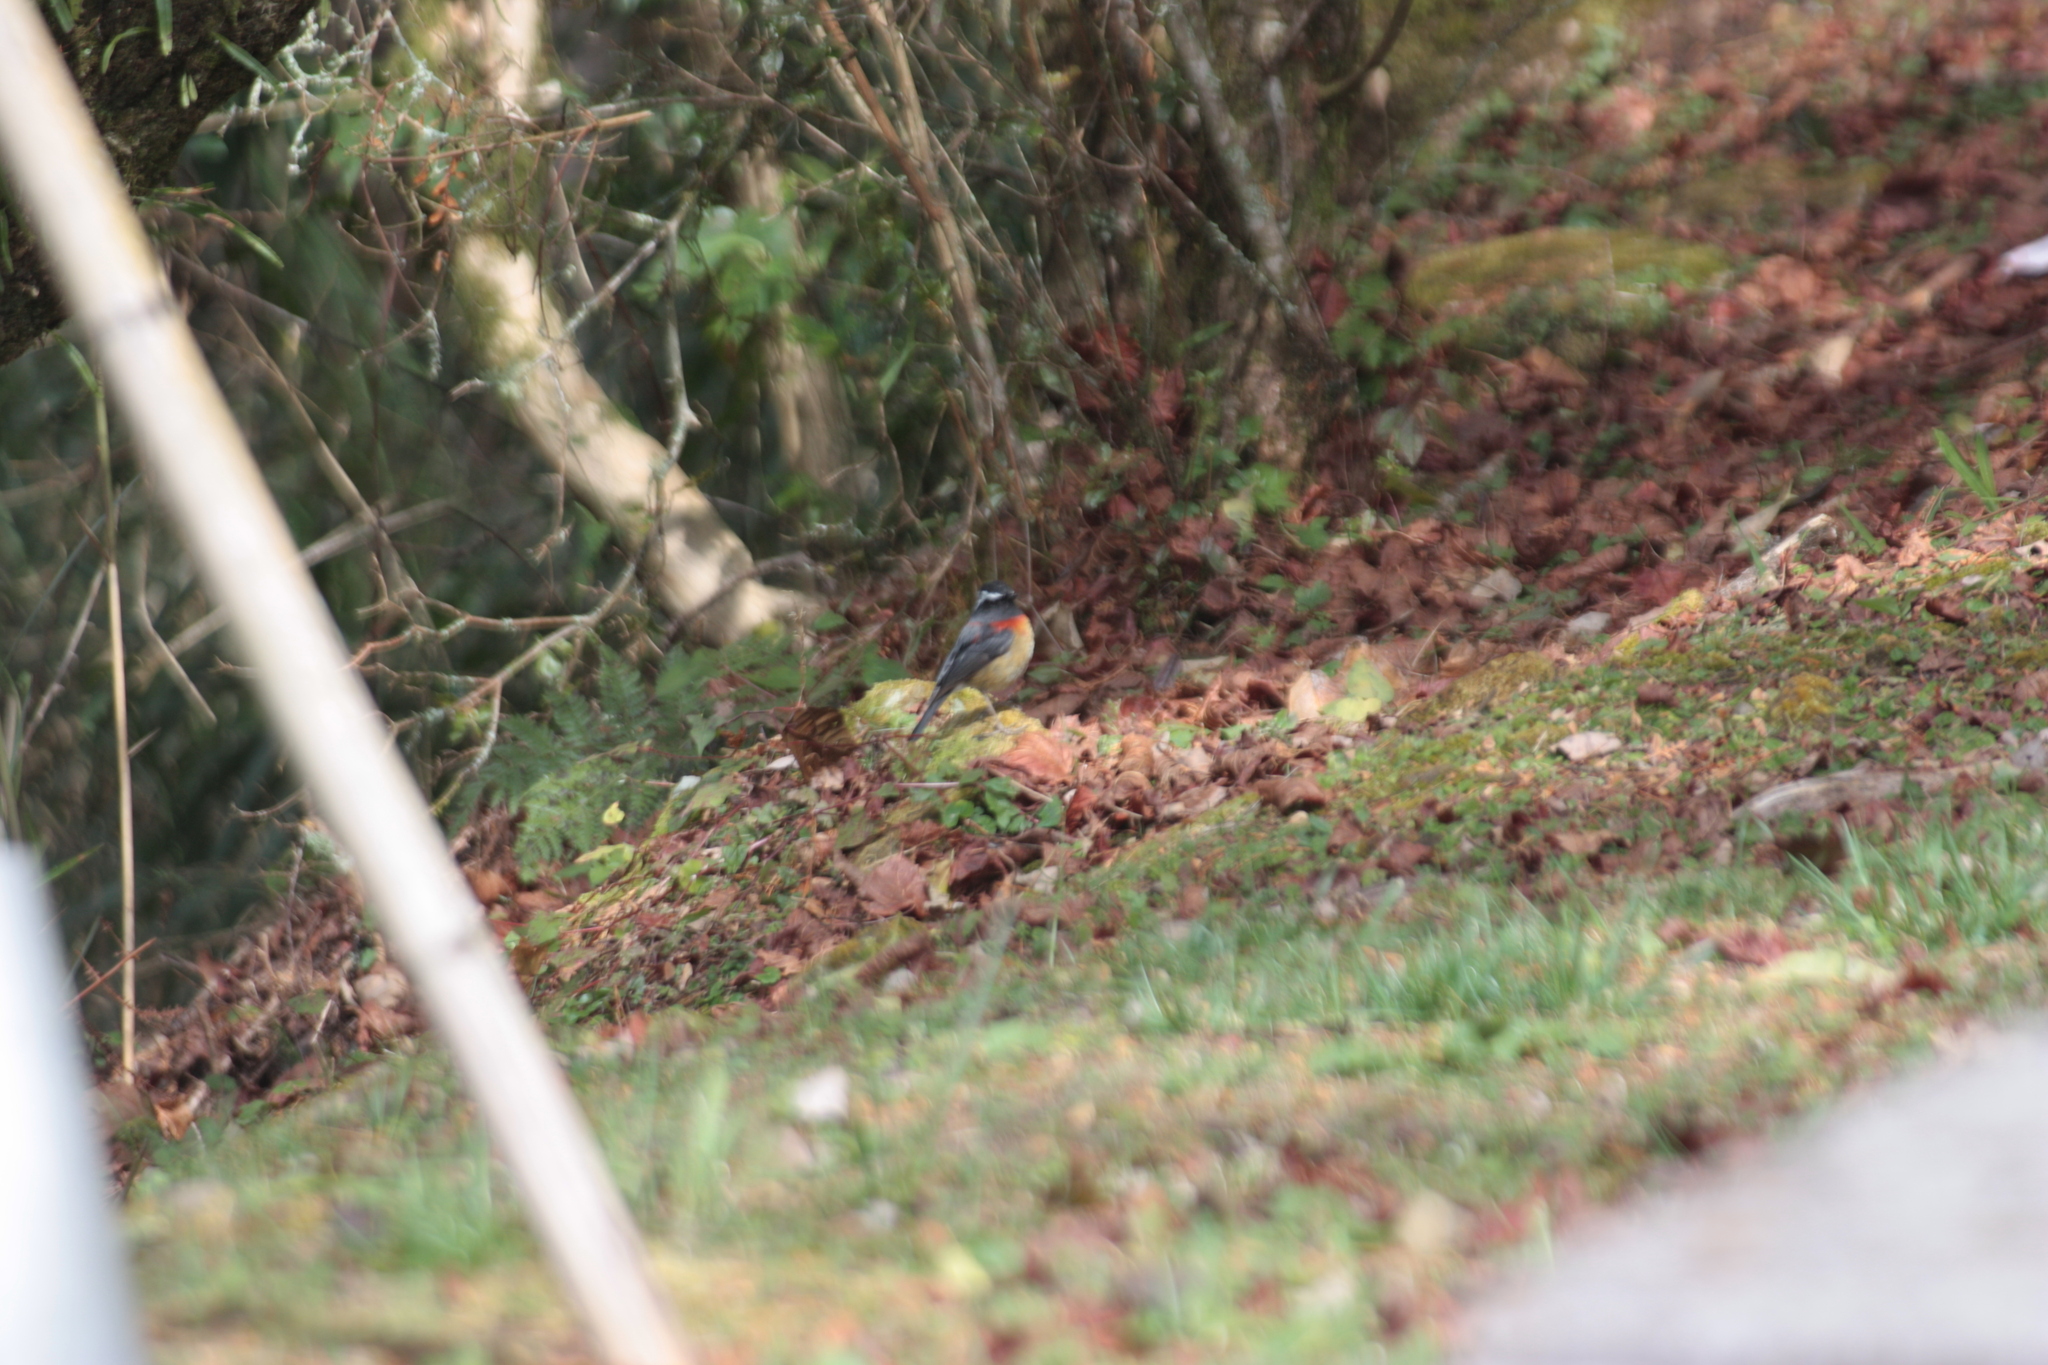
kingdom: Animalia
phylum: Chordata
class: Aves
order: Passeriformes
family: Muscicapidae
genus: Tarsiger
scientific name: Tarsiger johnstoniae
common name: Collared bush robin
